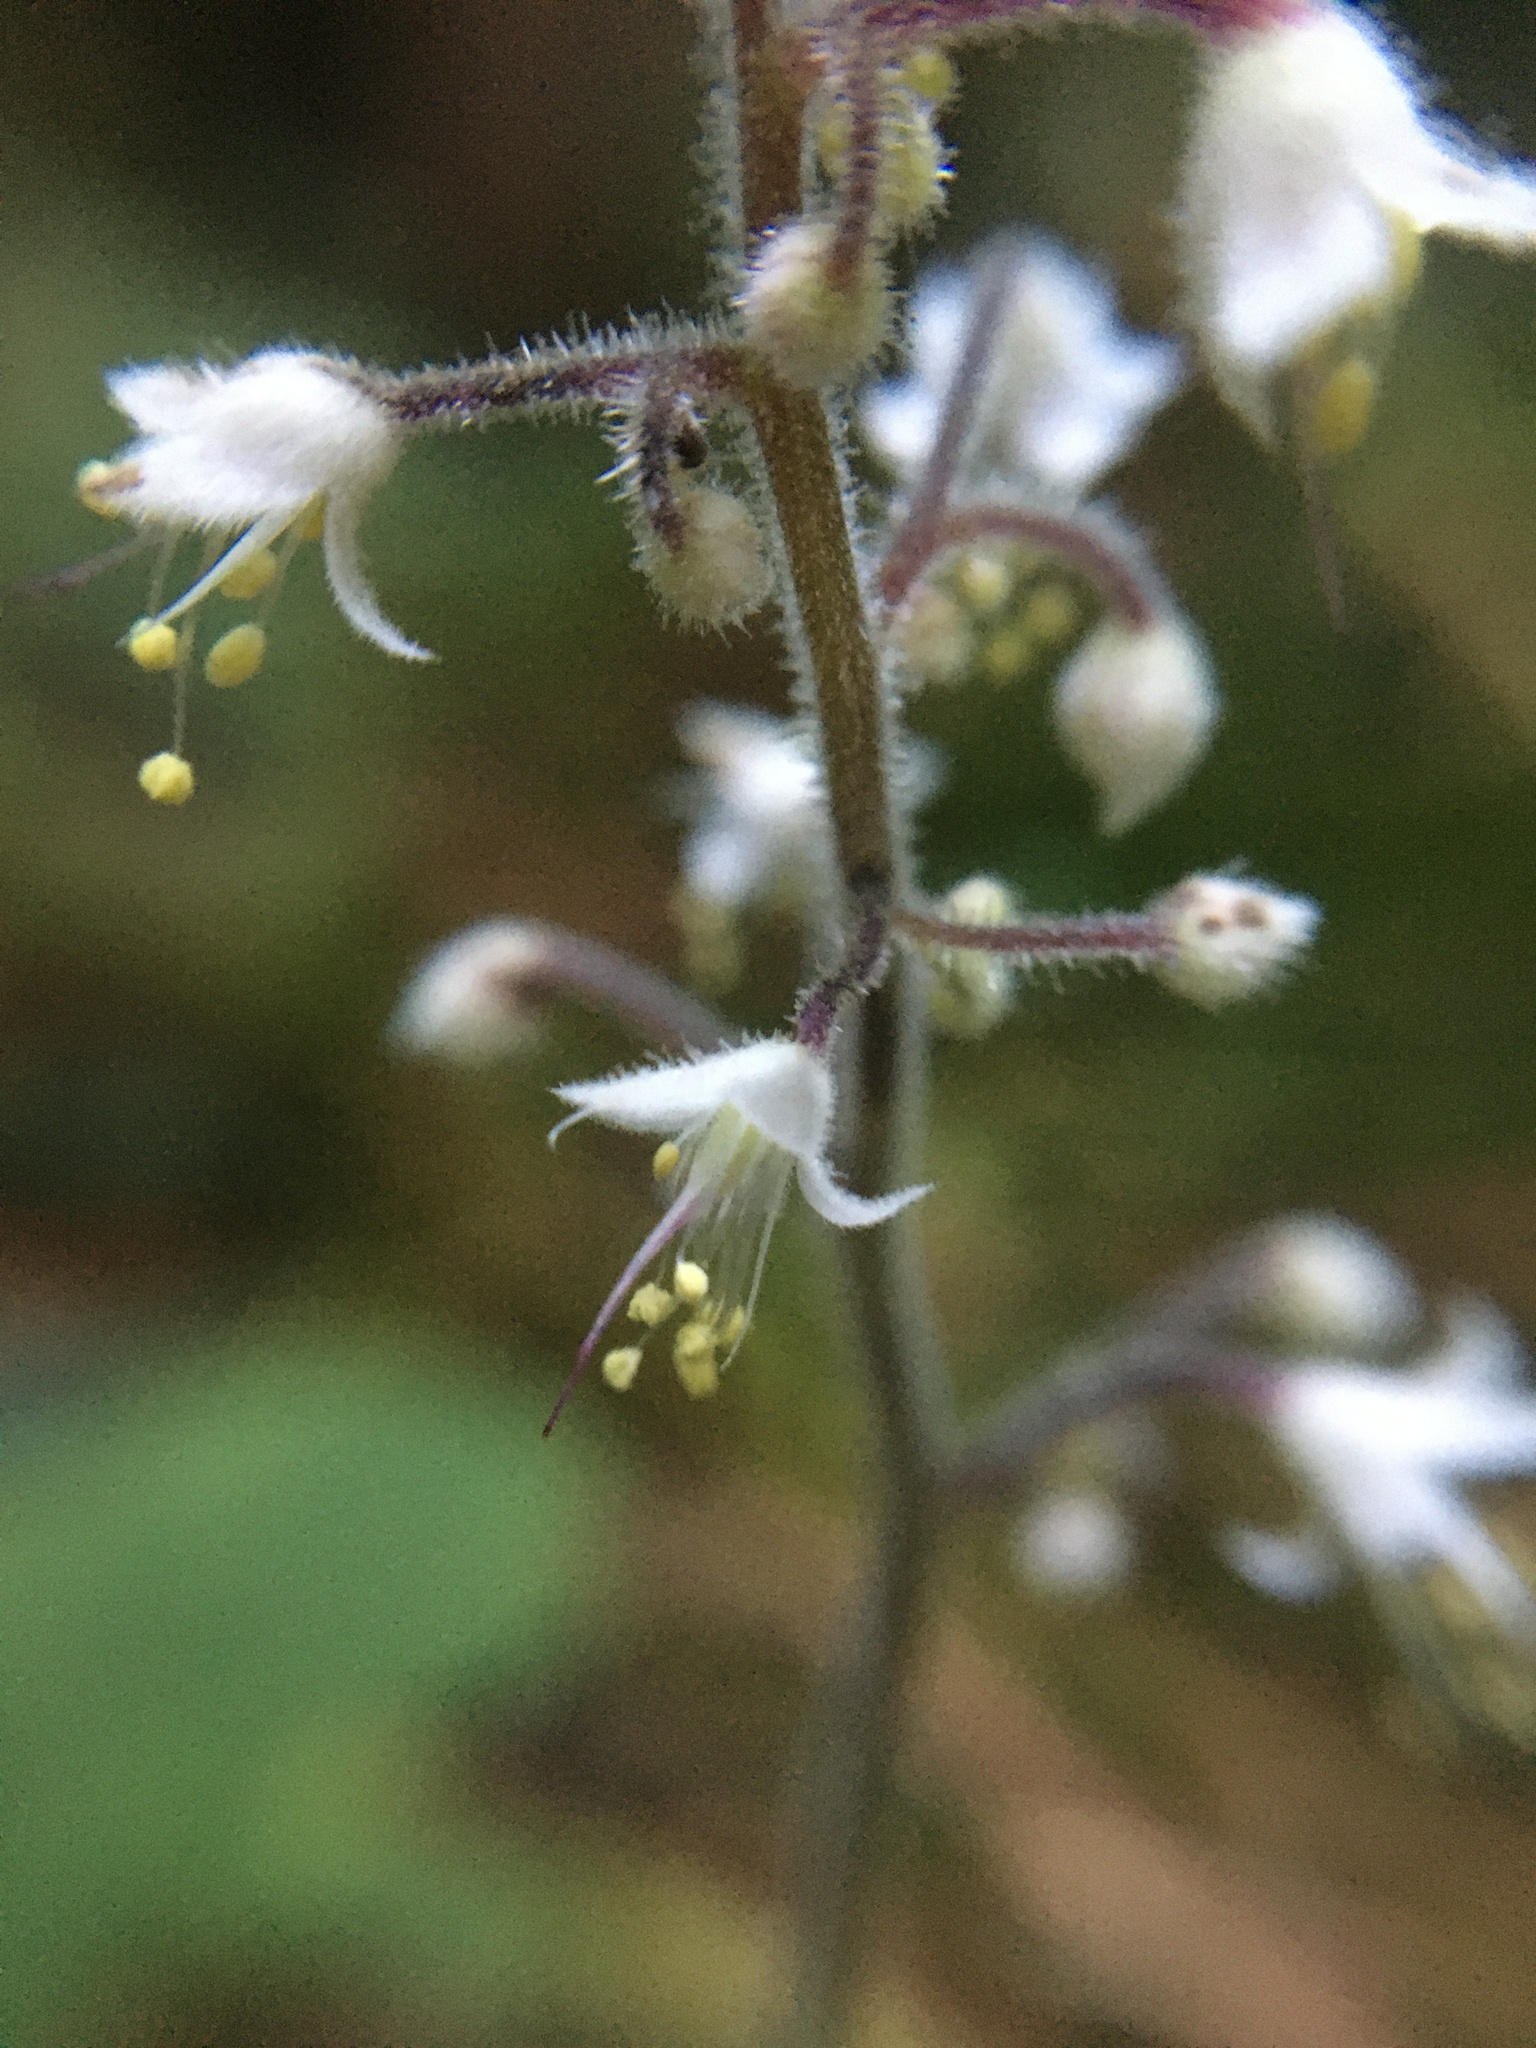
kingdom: Plantae
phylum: Tracheophyta
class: Magnoliopsida
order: Saxifragales
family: Saxifragaceae
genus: Tiarella
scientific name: Tiarella trifoliata
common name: Sugar-scoop
